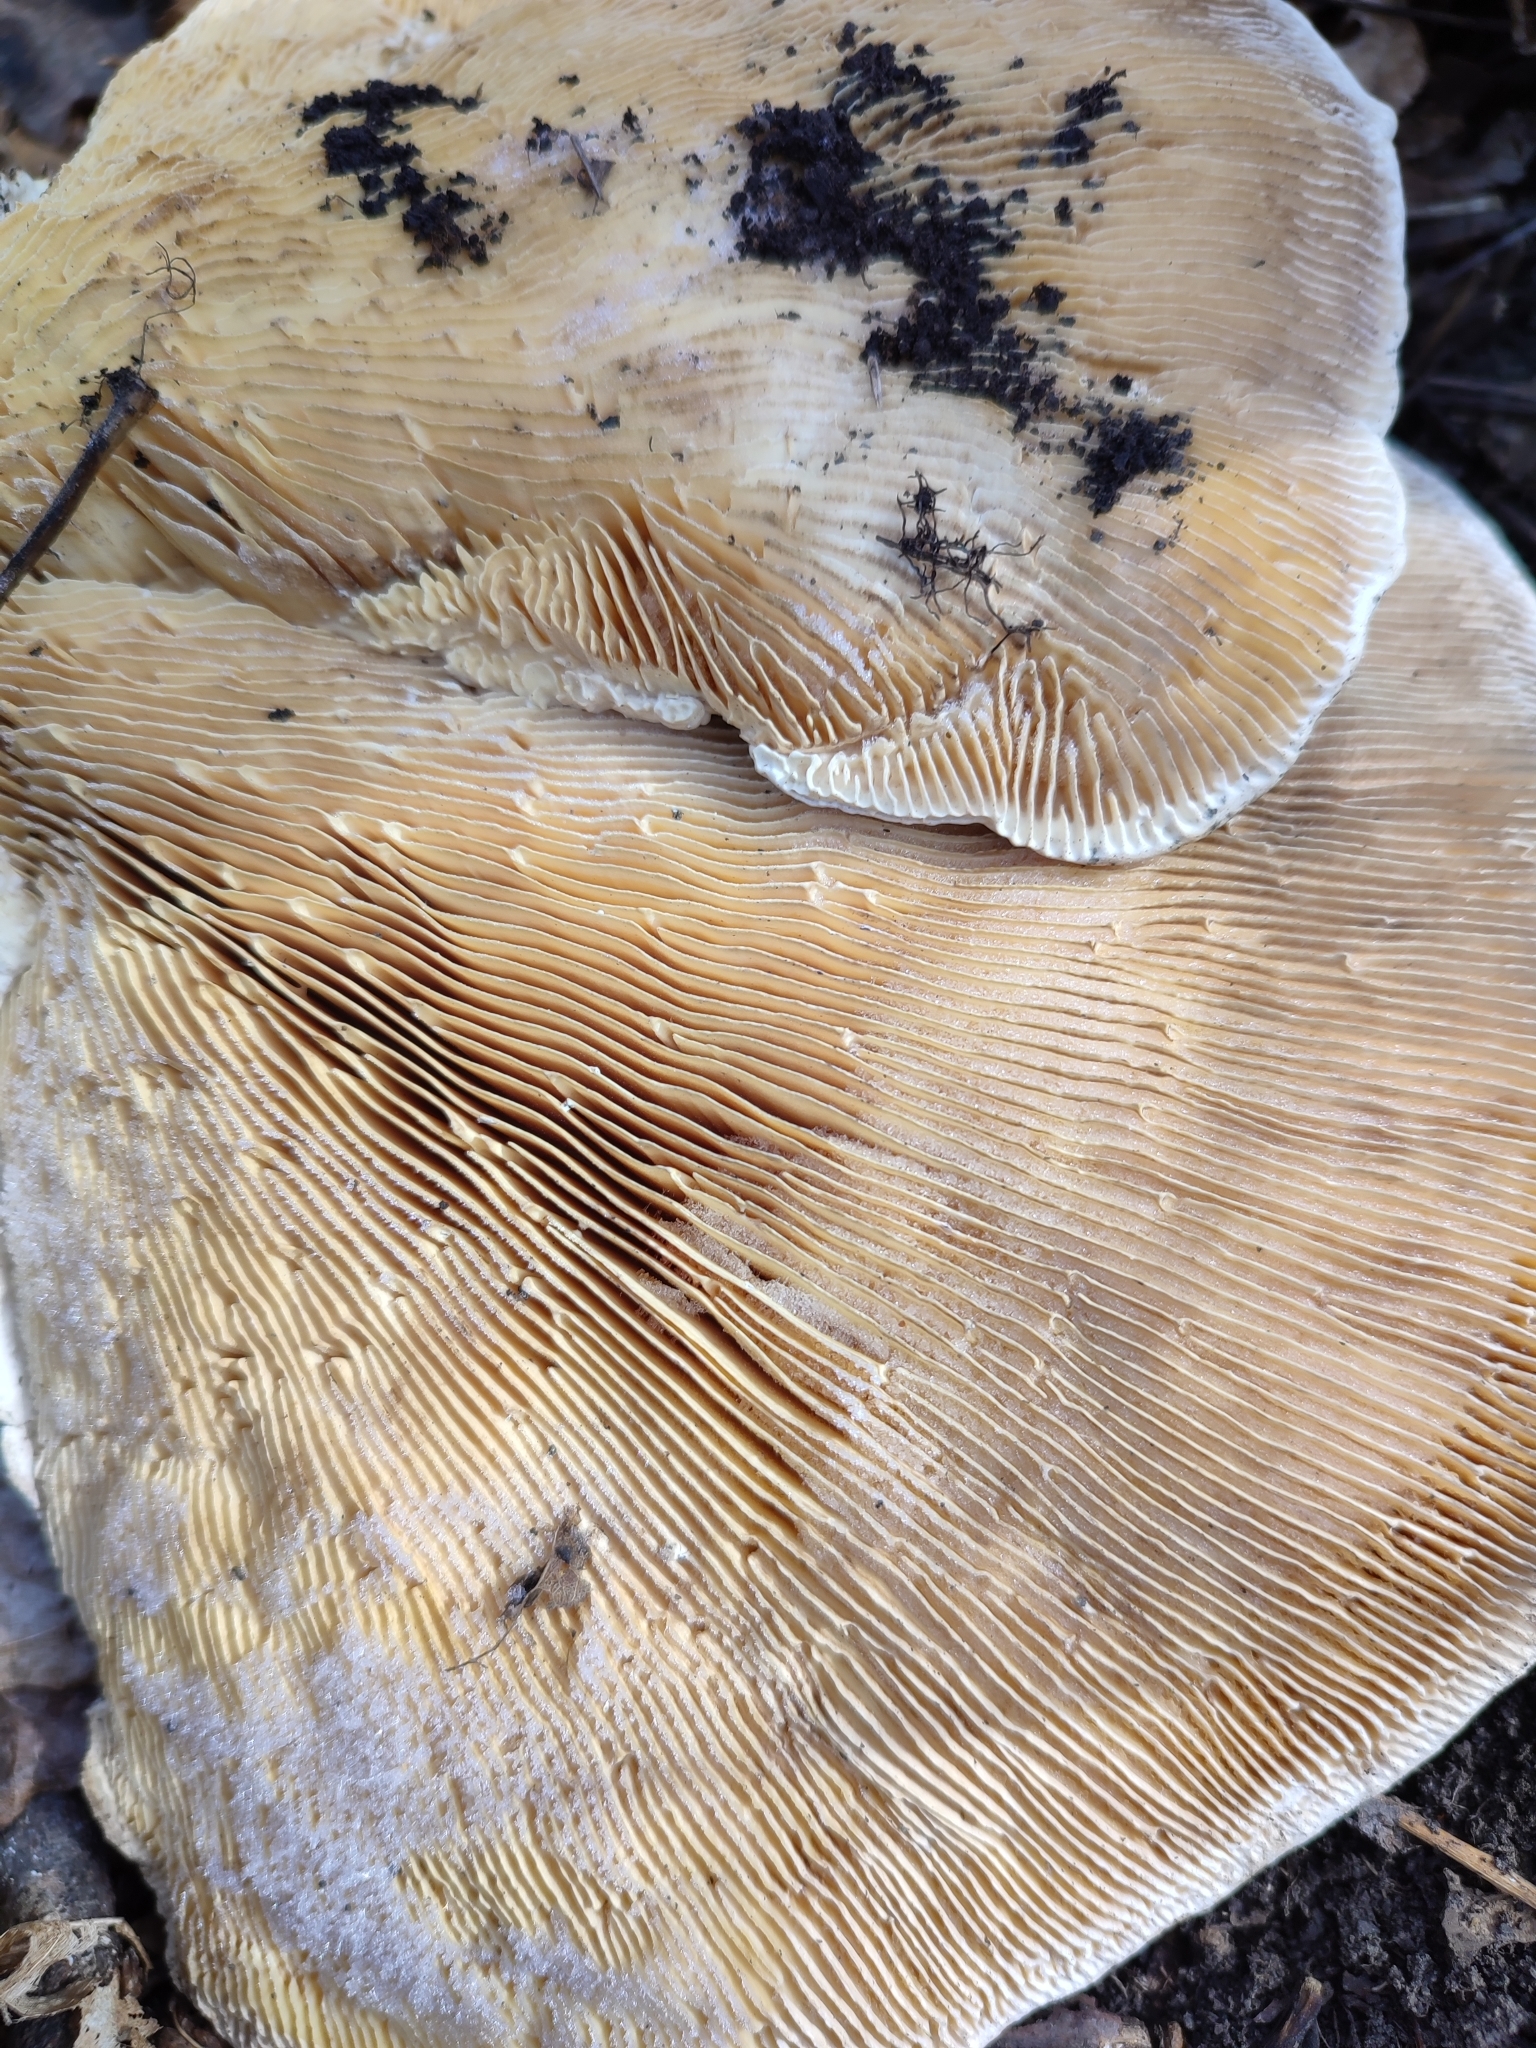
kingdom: Fungi
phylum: Basidiomycota
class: Agaricomycetes
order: Polyporales
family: Polyporaceae
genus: Lenzites
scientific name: Lenzites betulinus
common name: Birch mazegill
